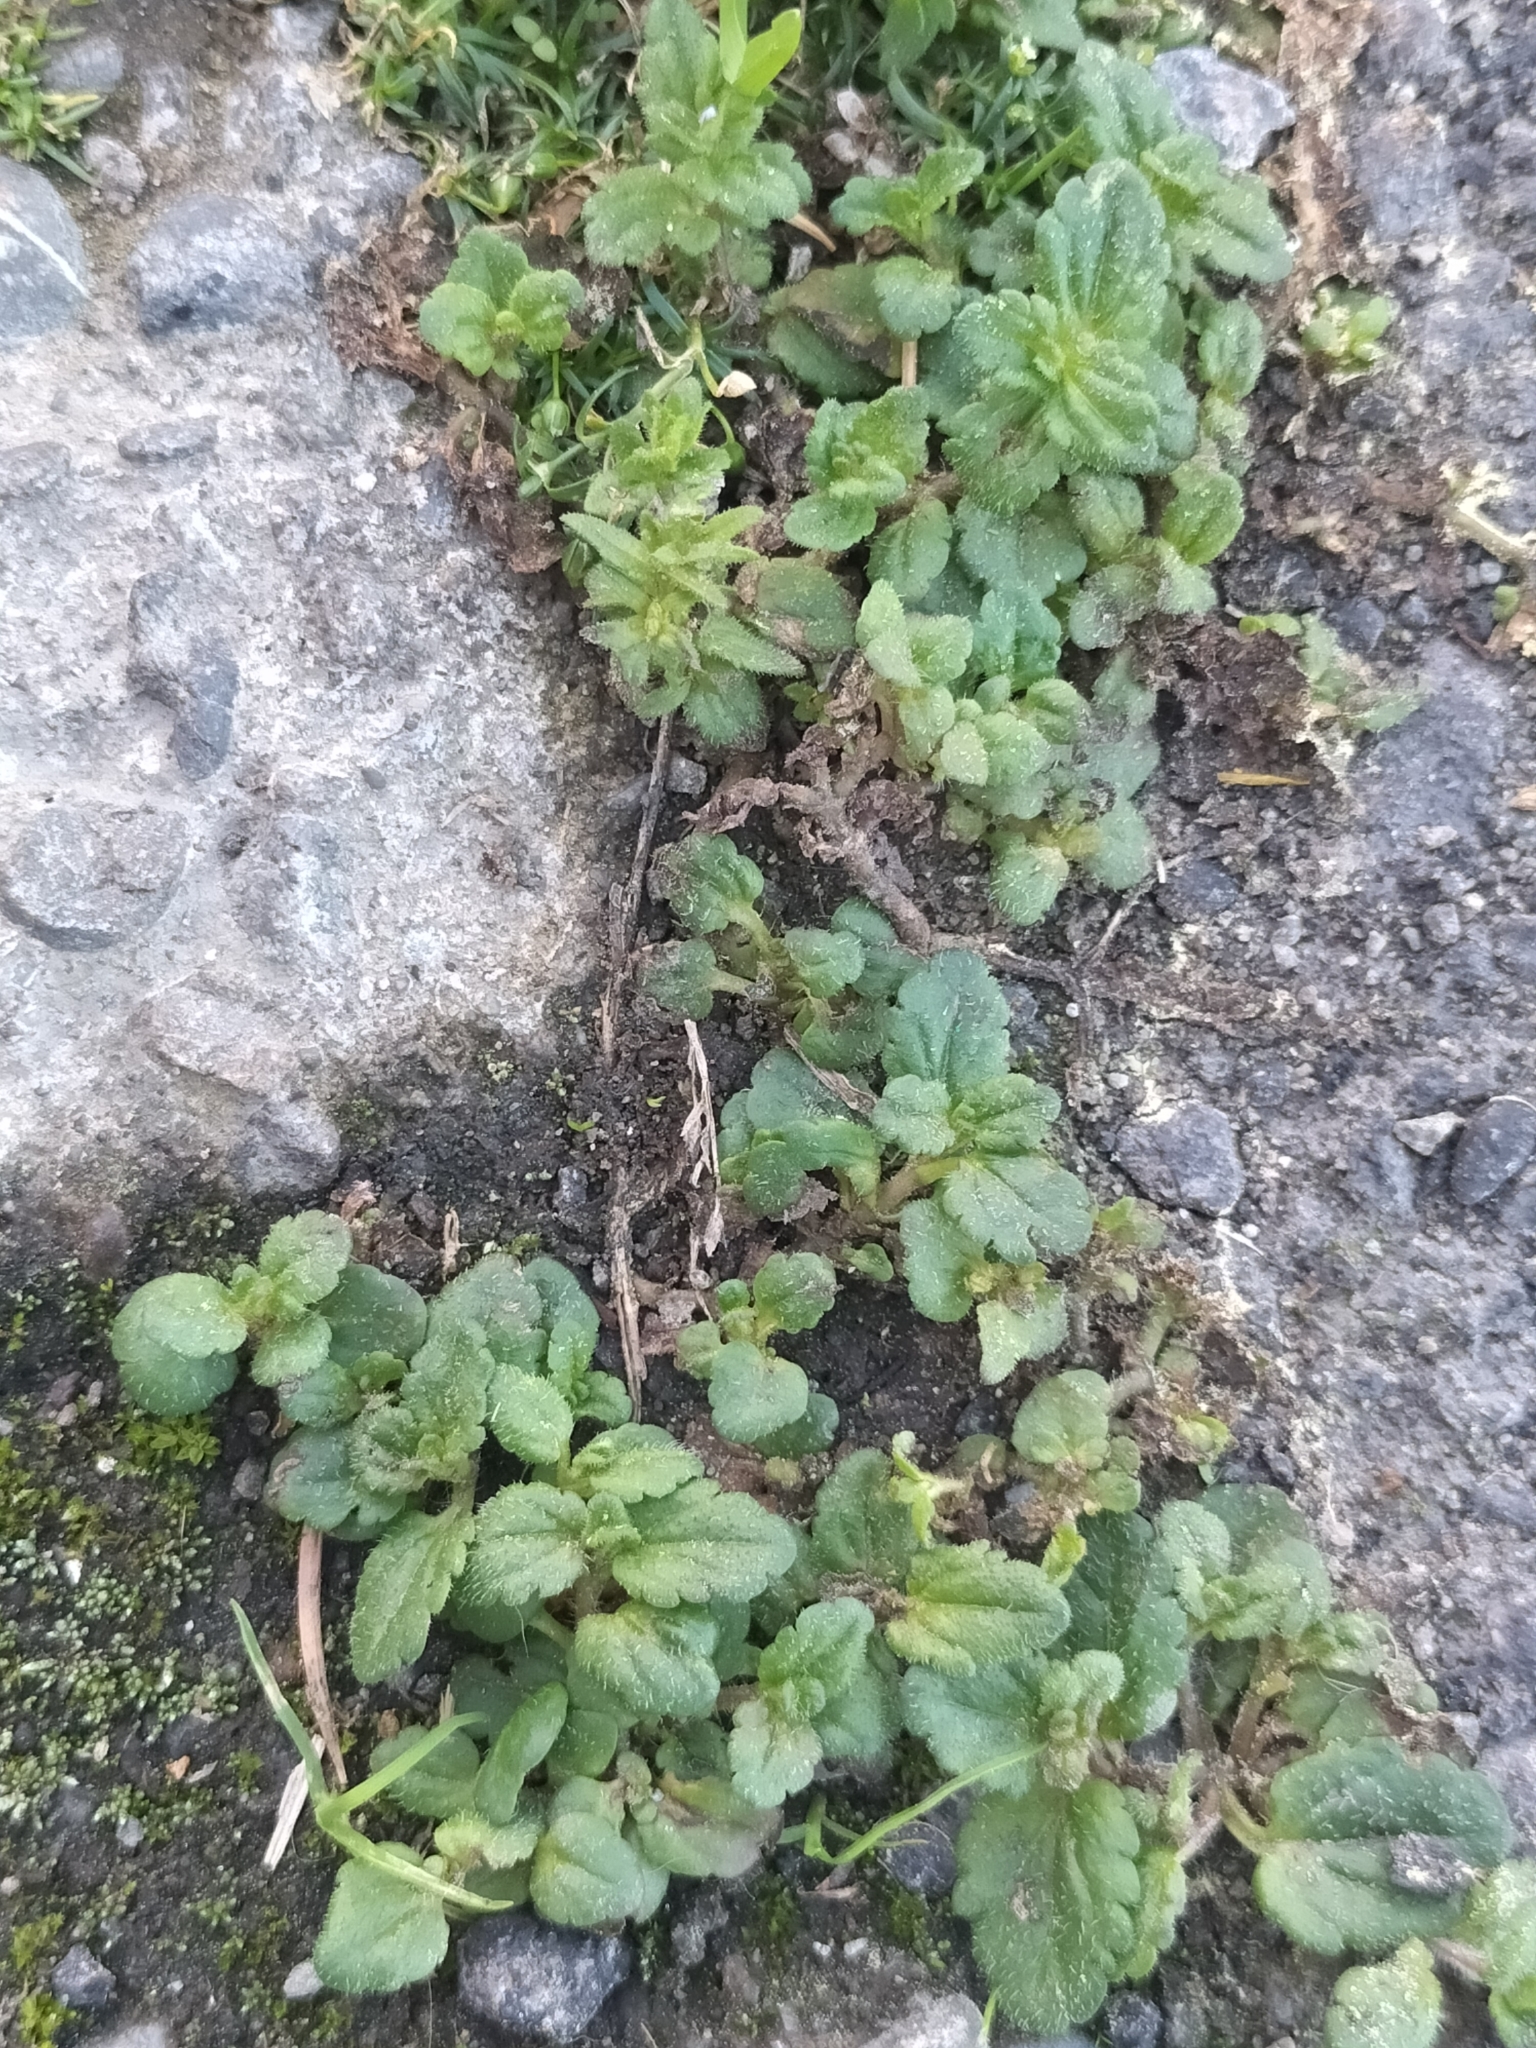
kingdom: Plantae
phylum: Tracheophyta
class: Magnoliopsida
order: Lamiales
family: Plantaginaceae
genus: Veronica
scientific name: Veronica persica
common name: Common field-speedwell
